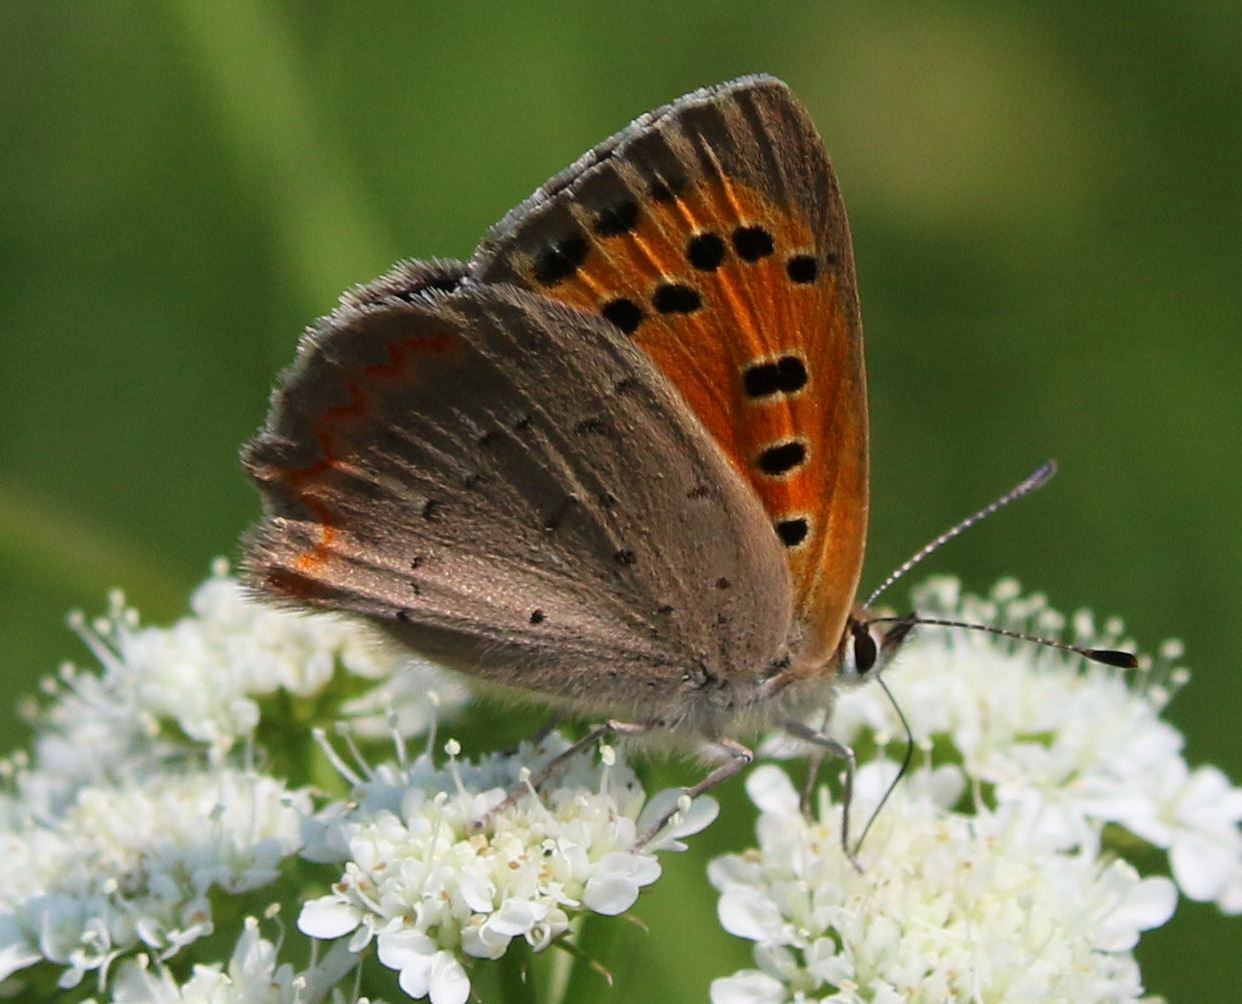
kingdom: Animalia
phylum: Arthropoda
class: Insecta
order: Lepidoptera
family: Lycaenidae
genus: Lycaena
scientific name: Lycaena phlaeas
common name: Small copper
